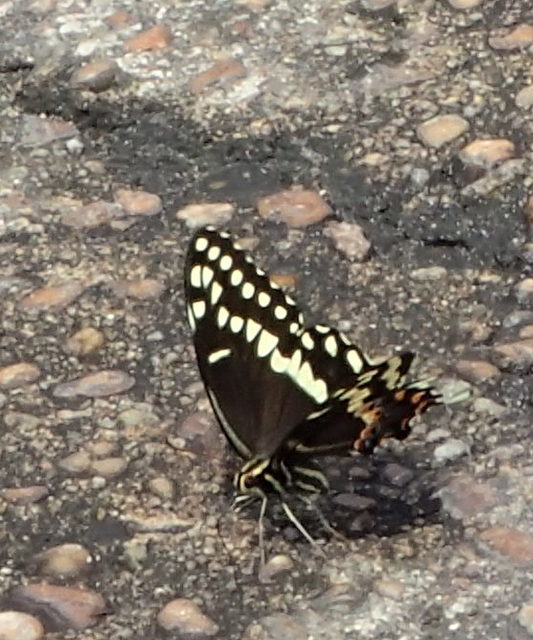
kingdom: Animalia
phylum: Arthropoda
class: Insecta
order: Lepidoptera
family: Papilionidae
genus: Papilio
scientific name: Papilio palamedes
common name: Palamedes swallowtail
